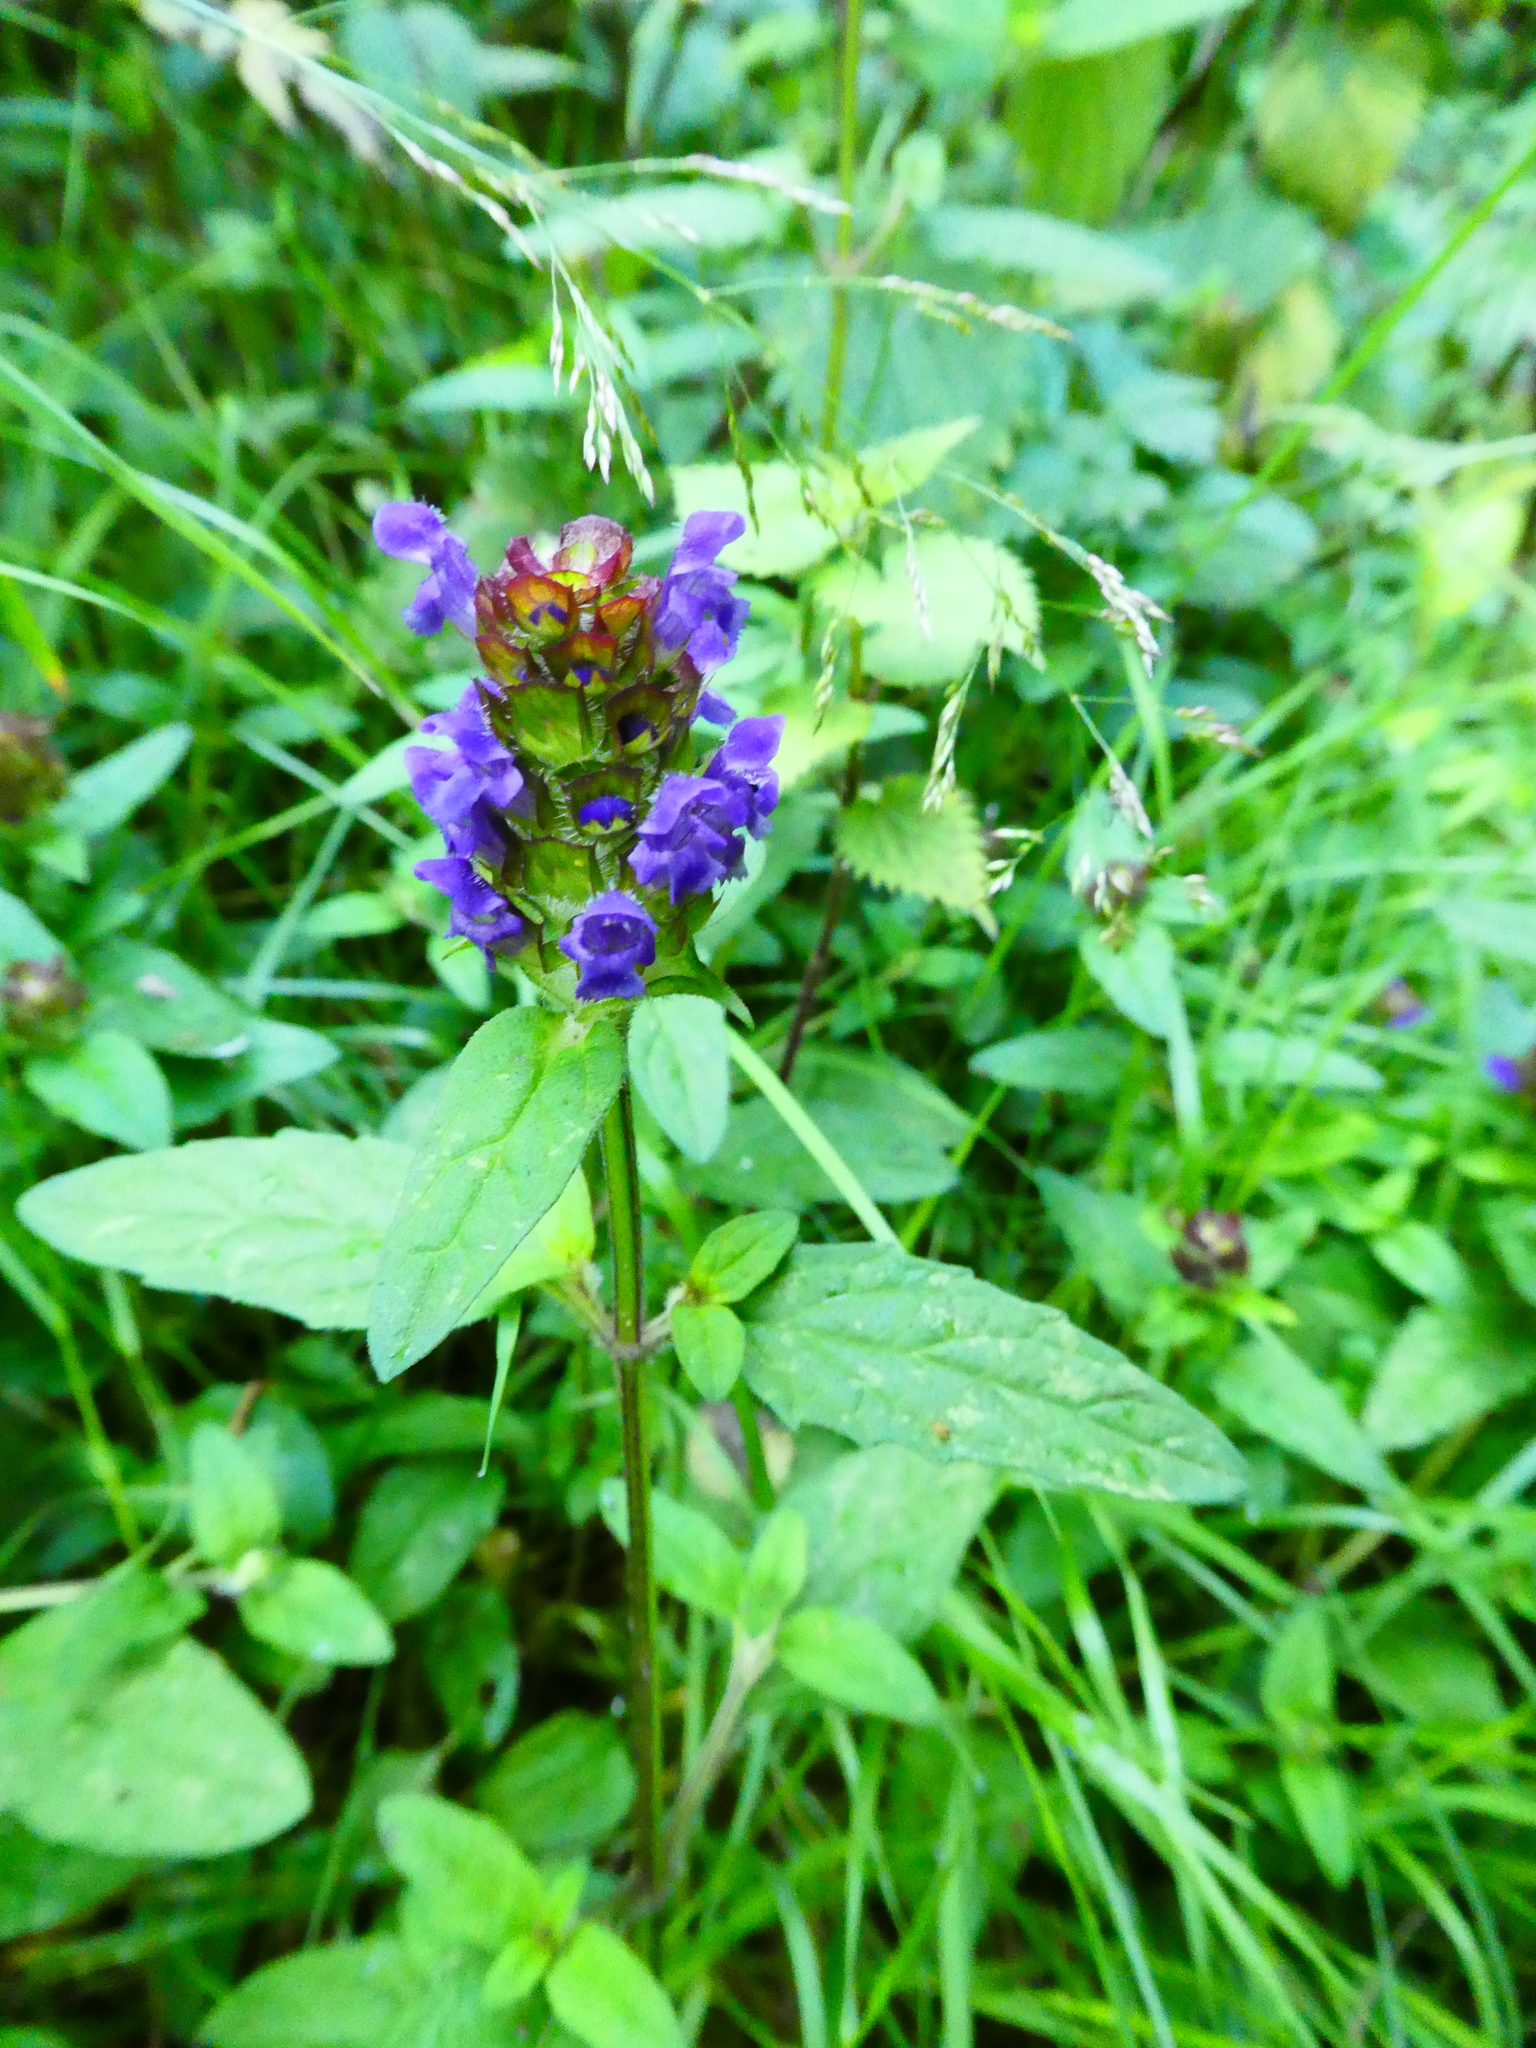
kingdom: Plantae
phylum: Tracheophyta
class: Magnoliopsida
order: Lamiales
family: Lamiaceae
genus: Prunella
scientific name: Prunella vulgaris
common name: Heal-all
